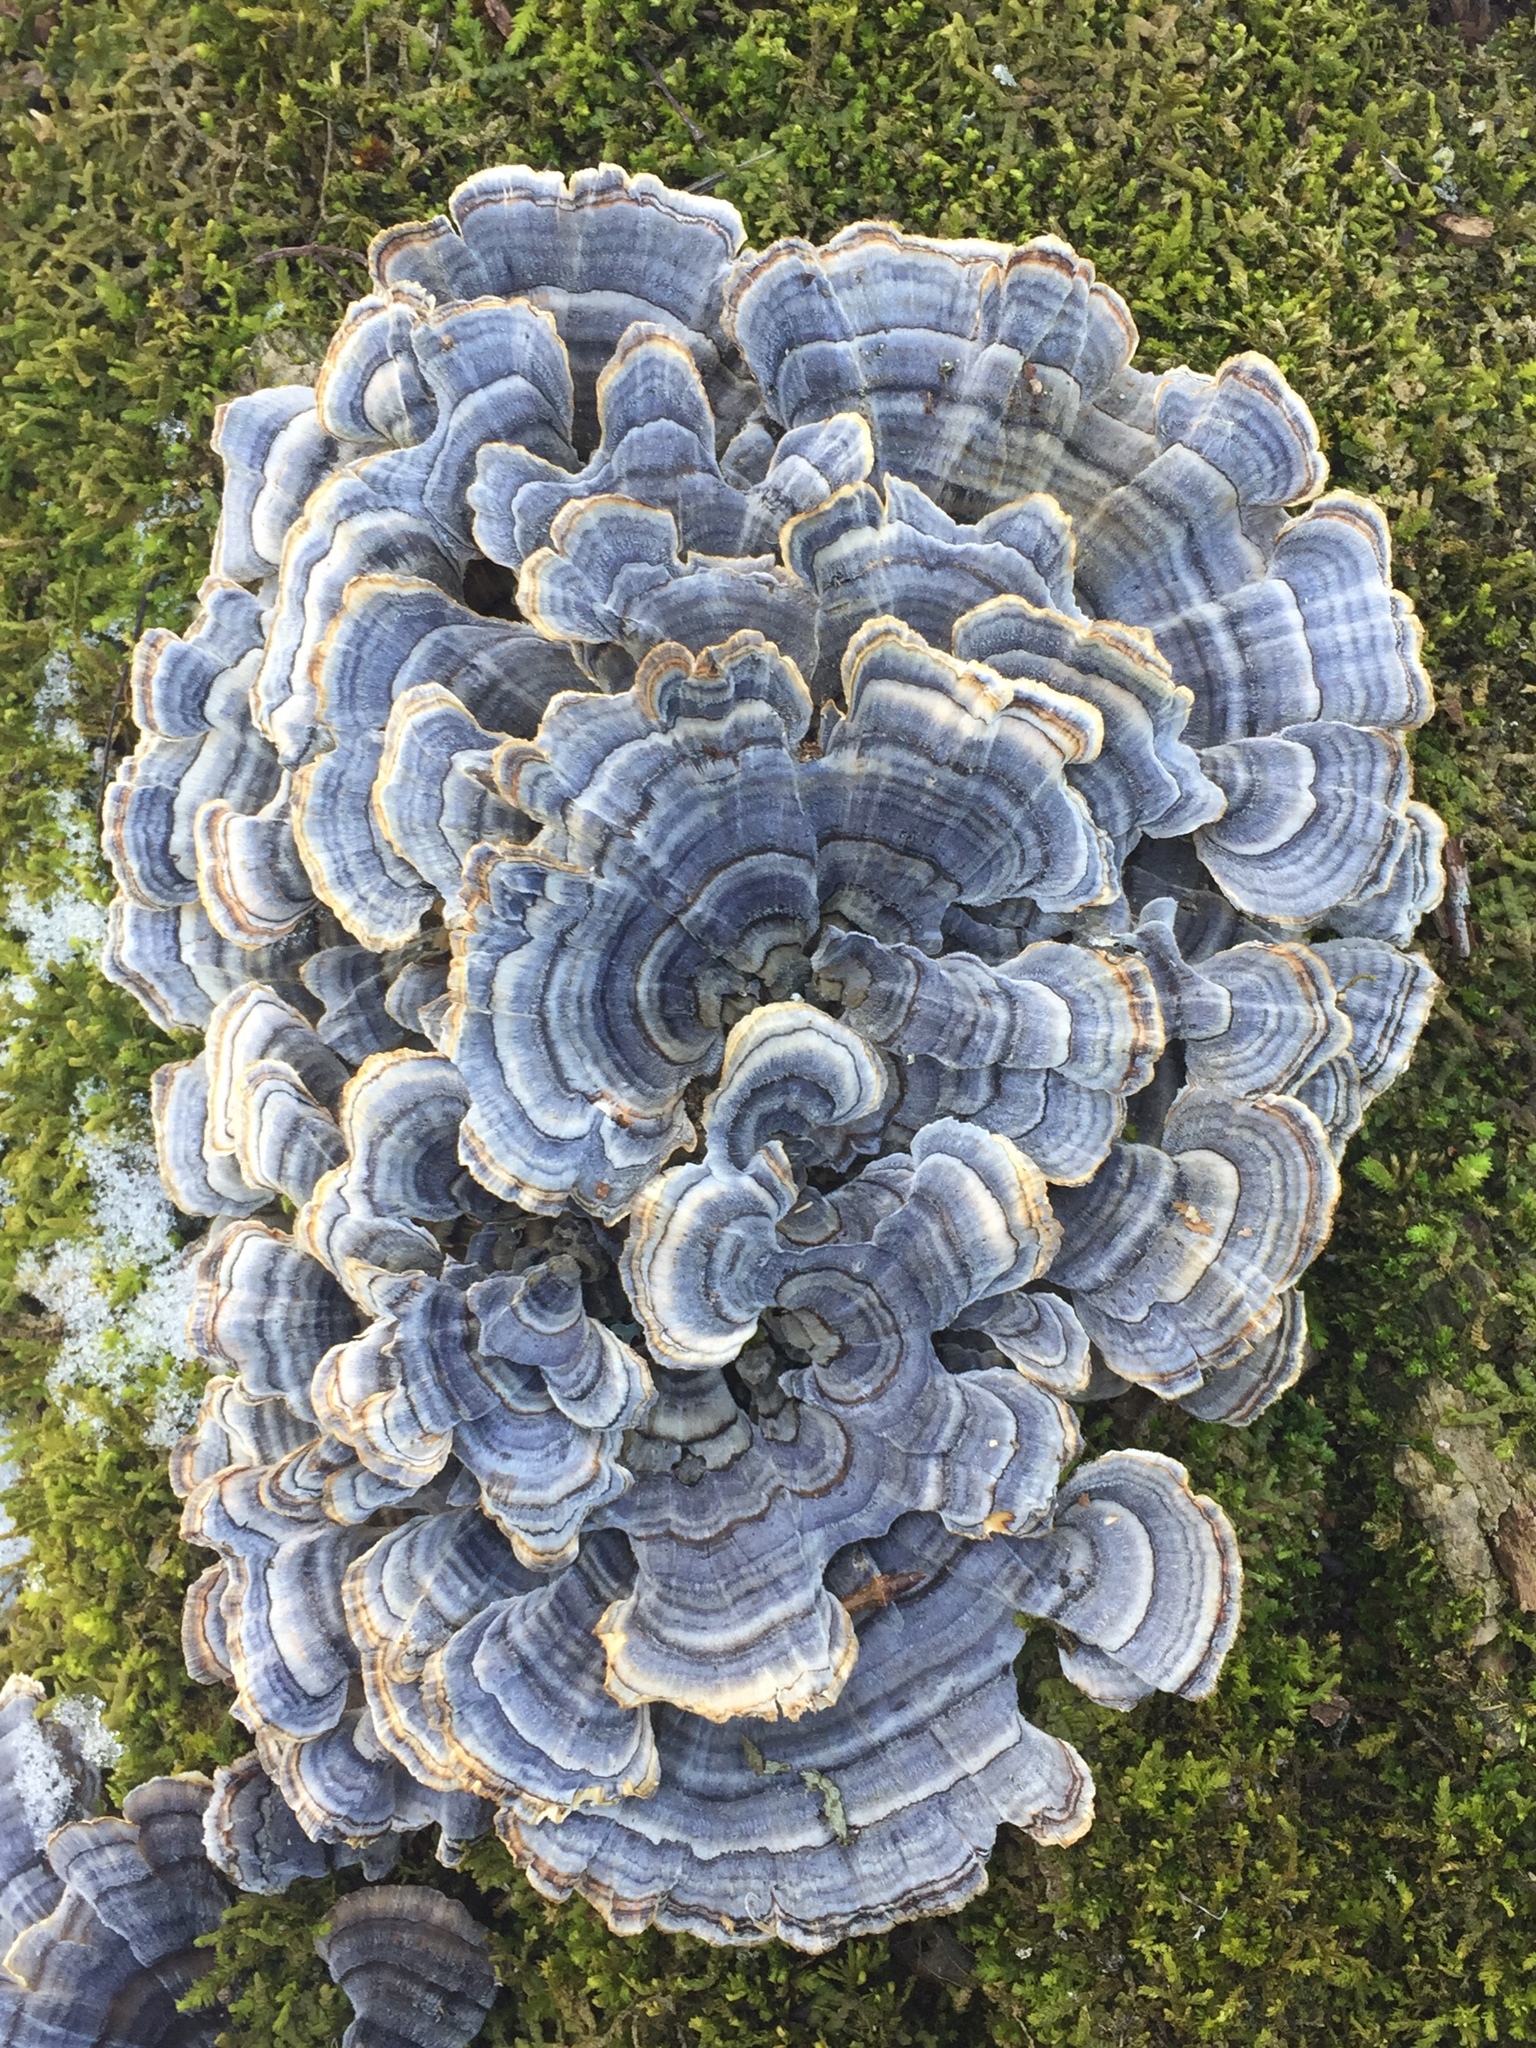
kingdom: Fungi
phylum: Basidiomycota
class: Agaricomycetes
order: Polyporales
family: Polyporaceae
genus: Trametes
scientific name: Trametes versicolor
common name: Turkeytail
